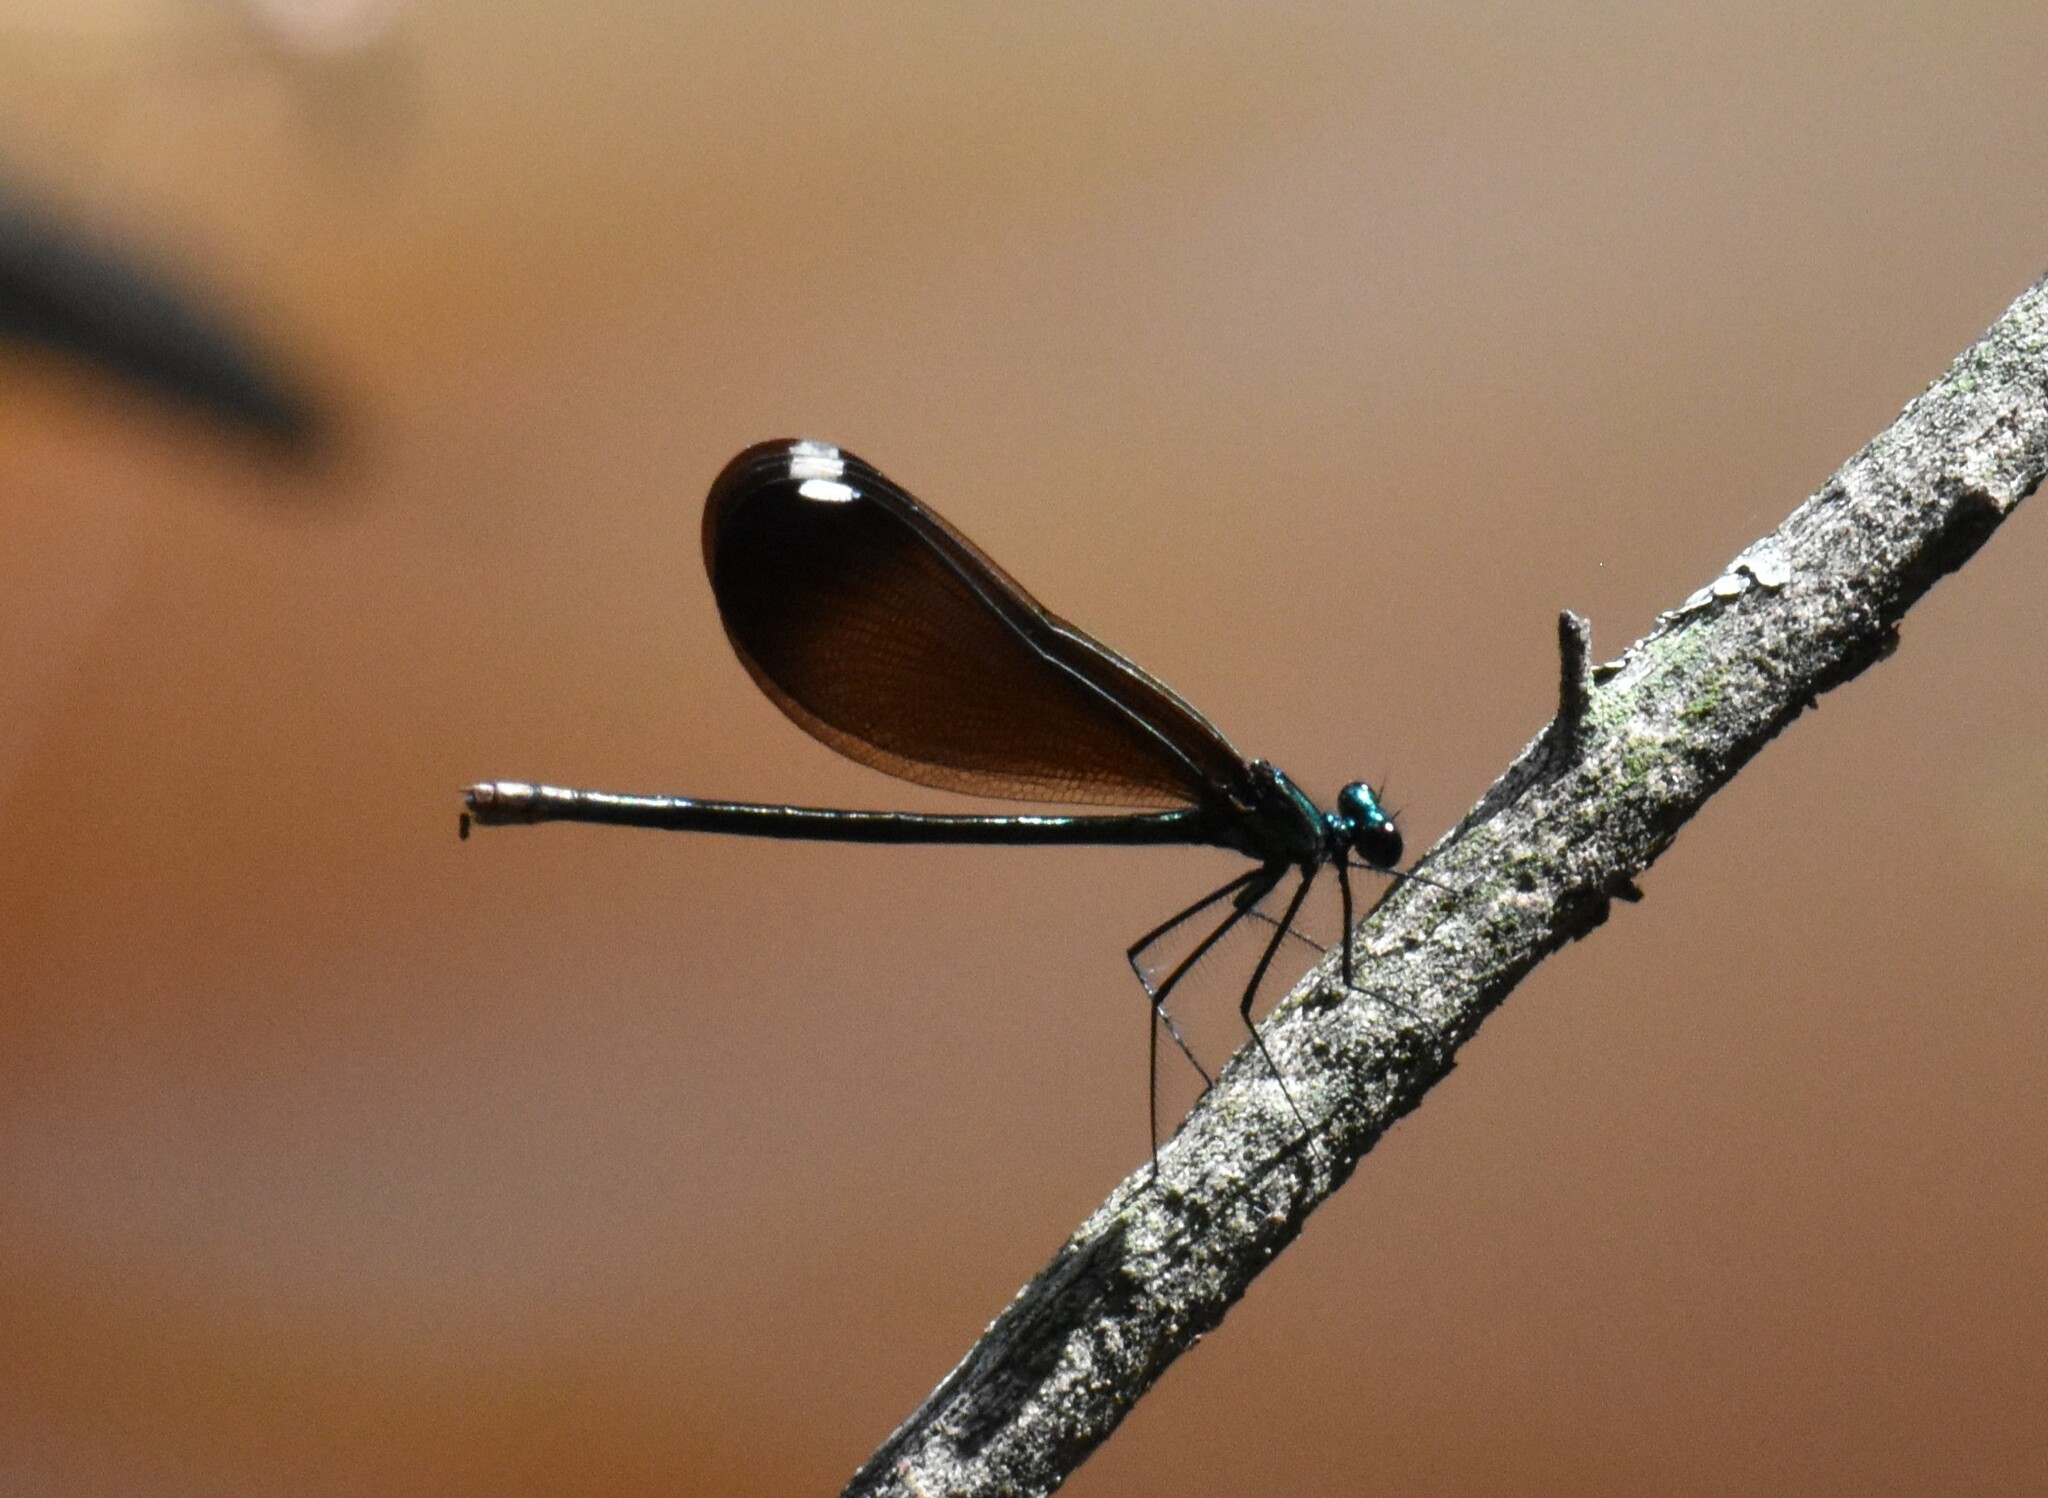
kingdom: Animalia
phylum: Arthropoda
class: Insecta
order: Odonata
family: Calopterygidae
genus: Calopteryx
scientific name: Calopteryx maculata
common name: Ebony jewelwing
